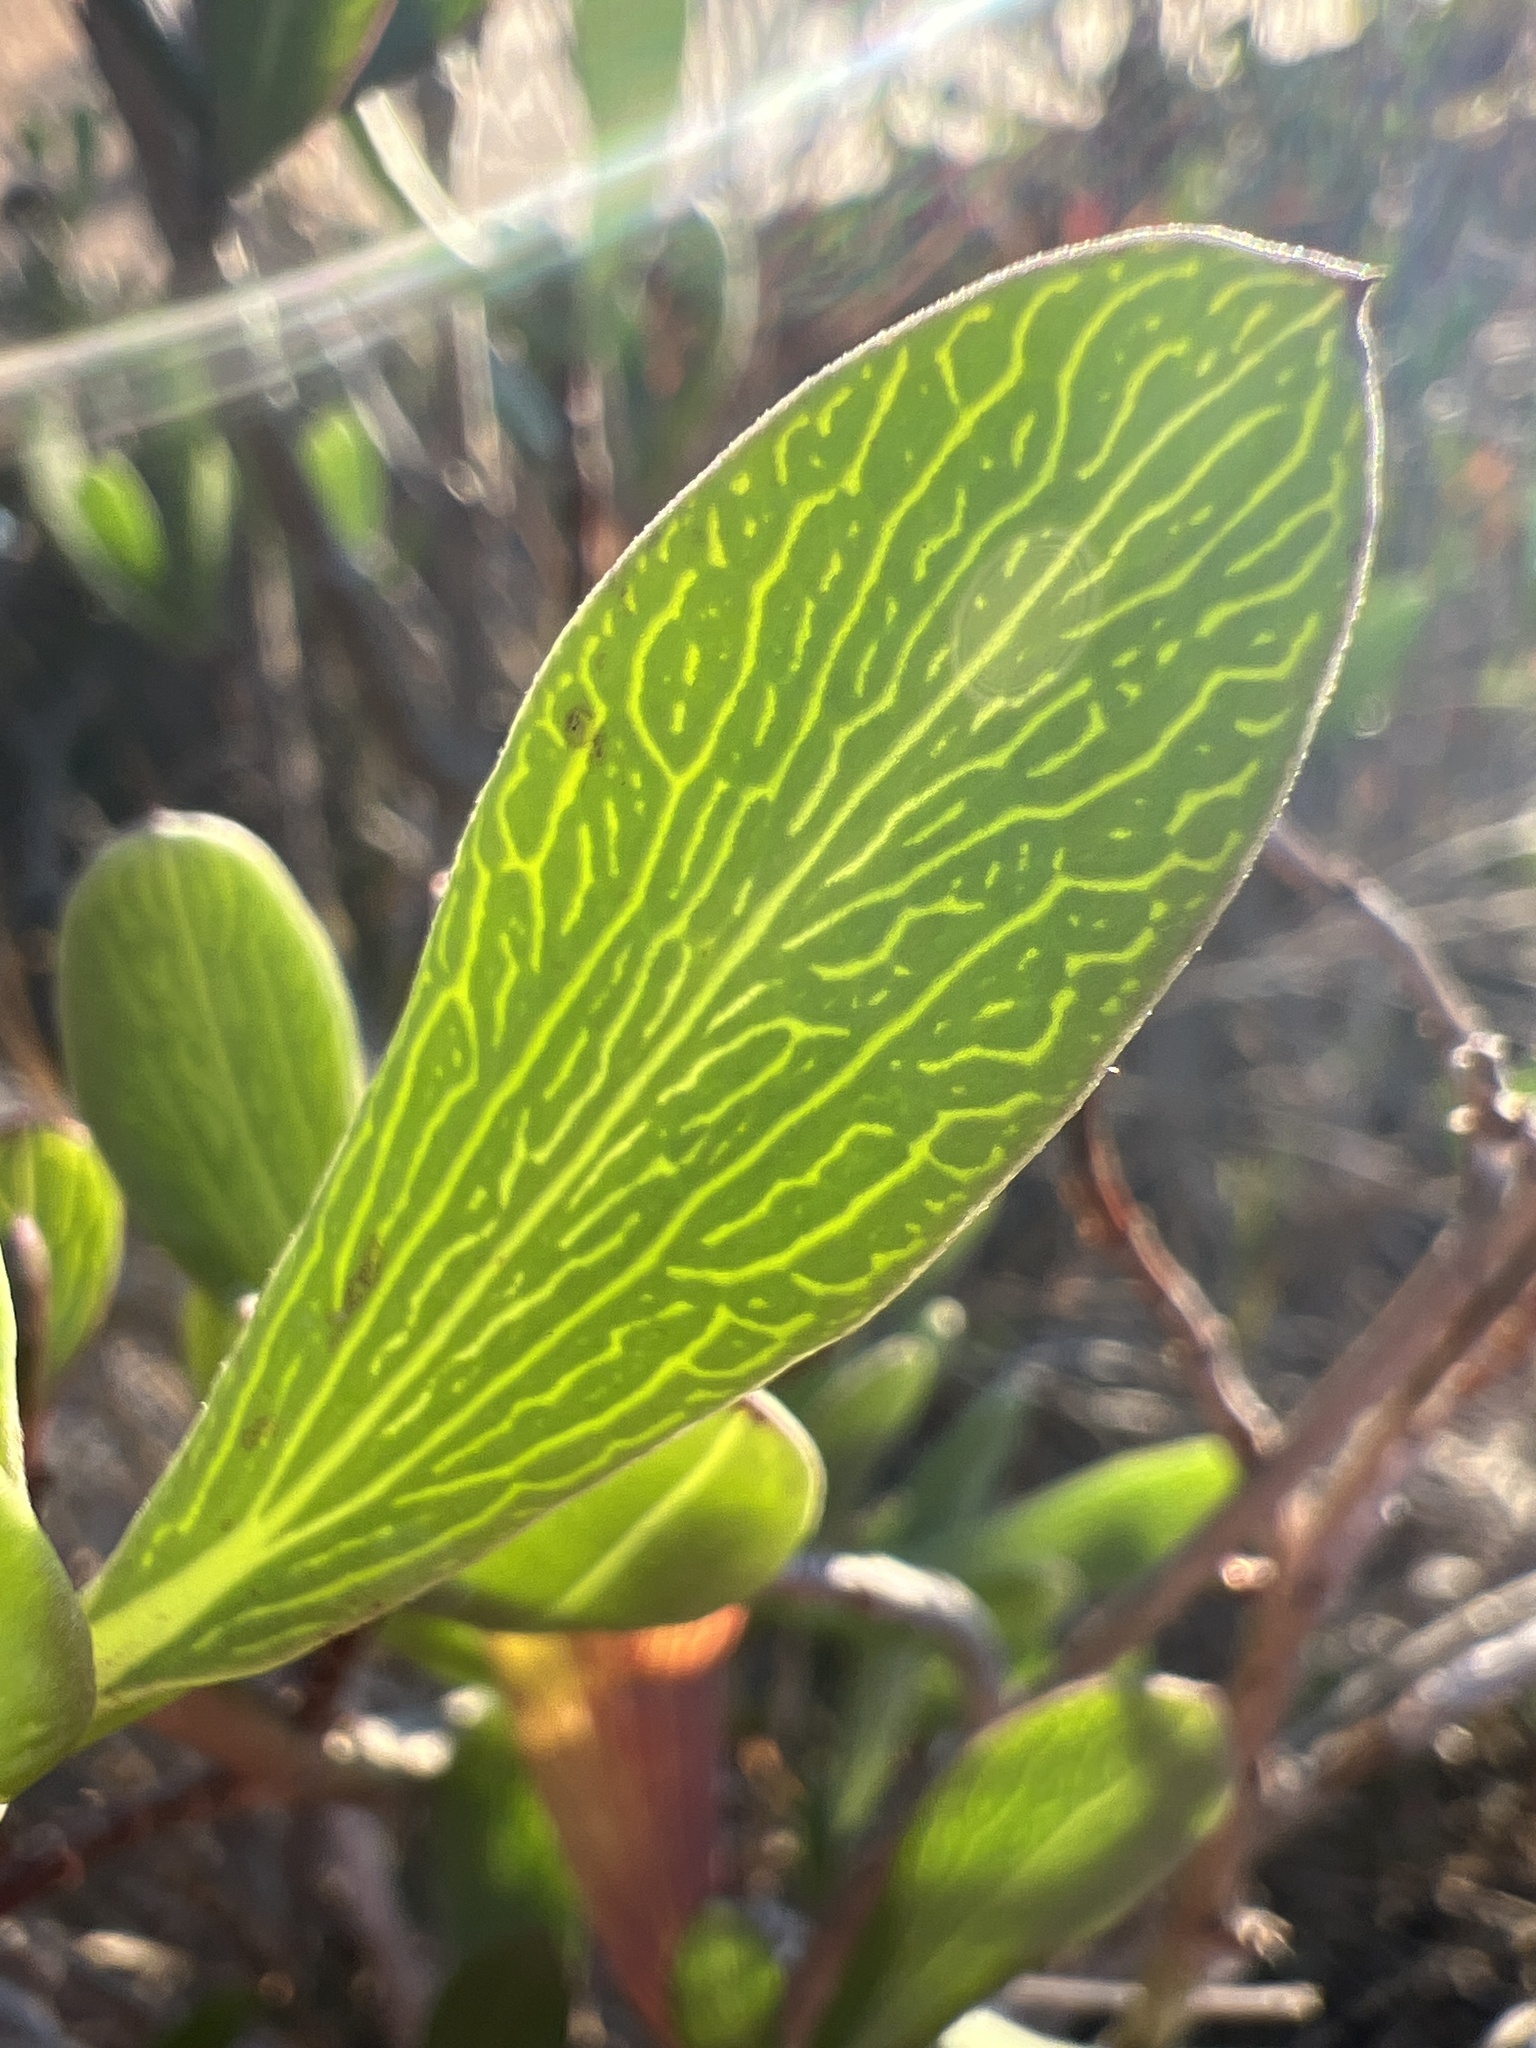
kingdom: Plantae
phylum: Tracheophyta
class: Magnoliopsida
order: Asterales
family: Asteraceae
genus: Borrichia
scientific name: Borrichia frutescens
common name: Sea oxeye
